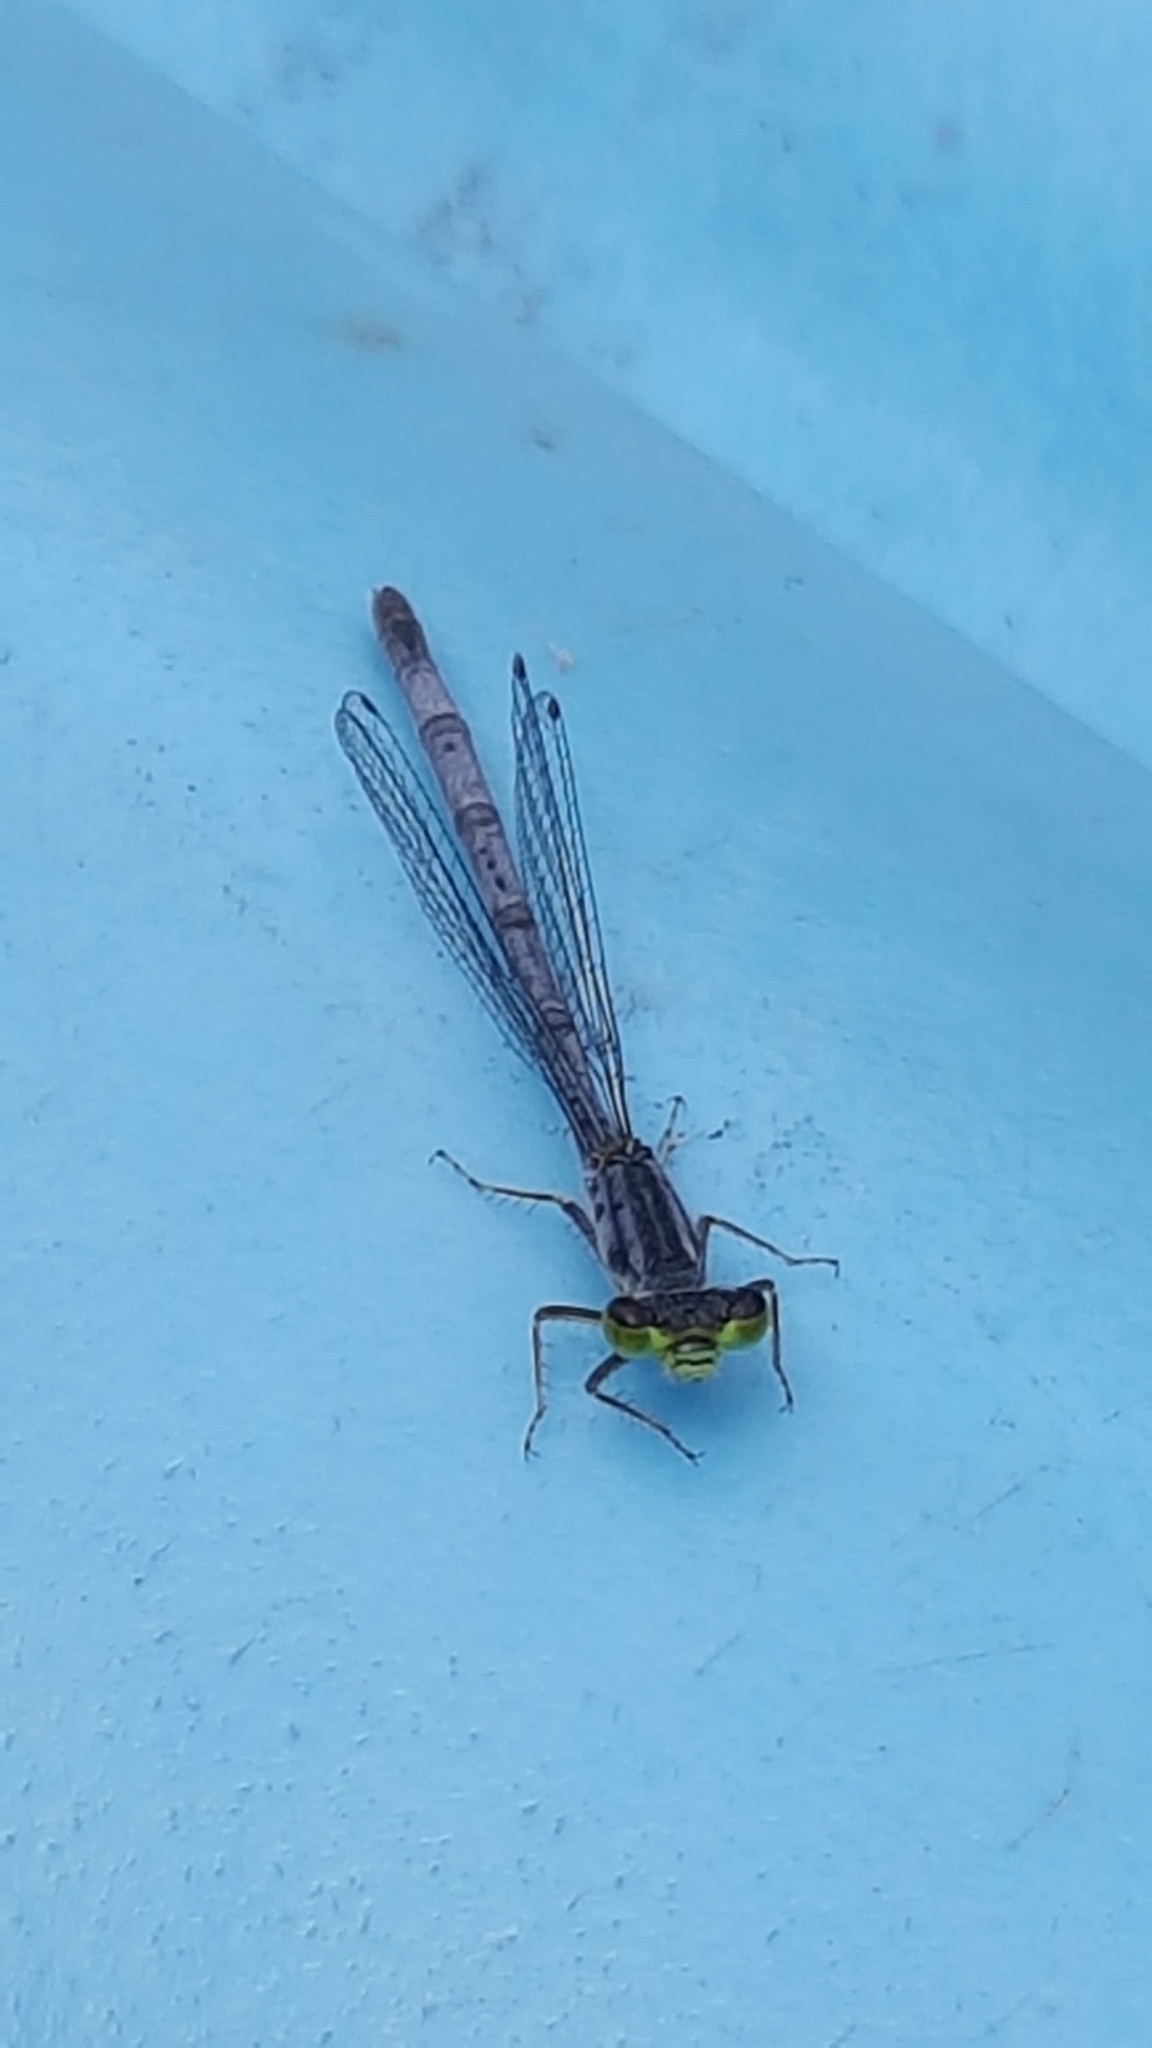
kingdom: Animalia
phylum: Arthropoda
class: Insecta
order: Odonata
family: Coenagrionidae
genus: Ischnura
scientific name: Ischnura verticalis
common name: Eastern forktail
